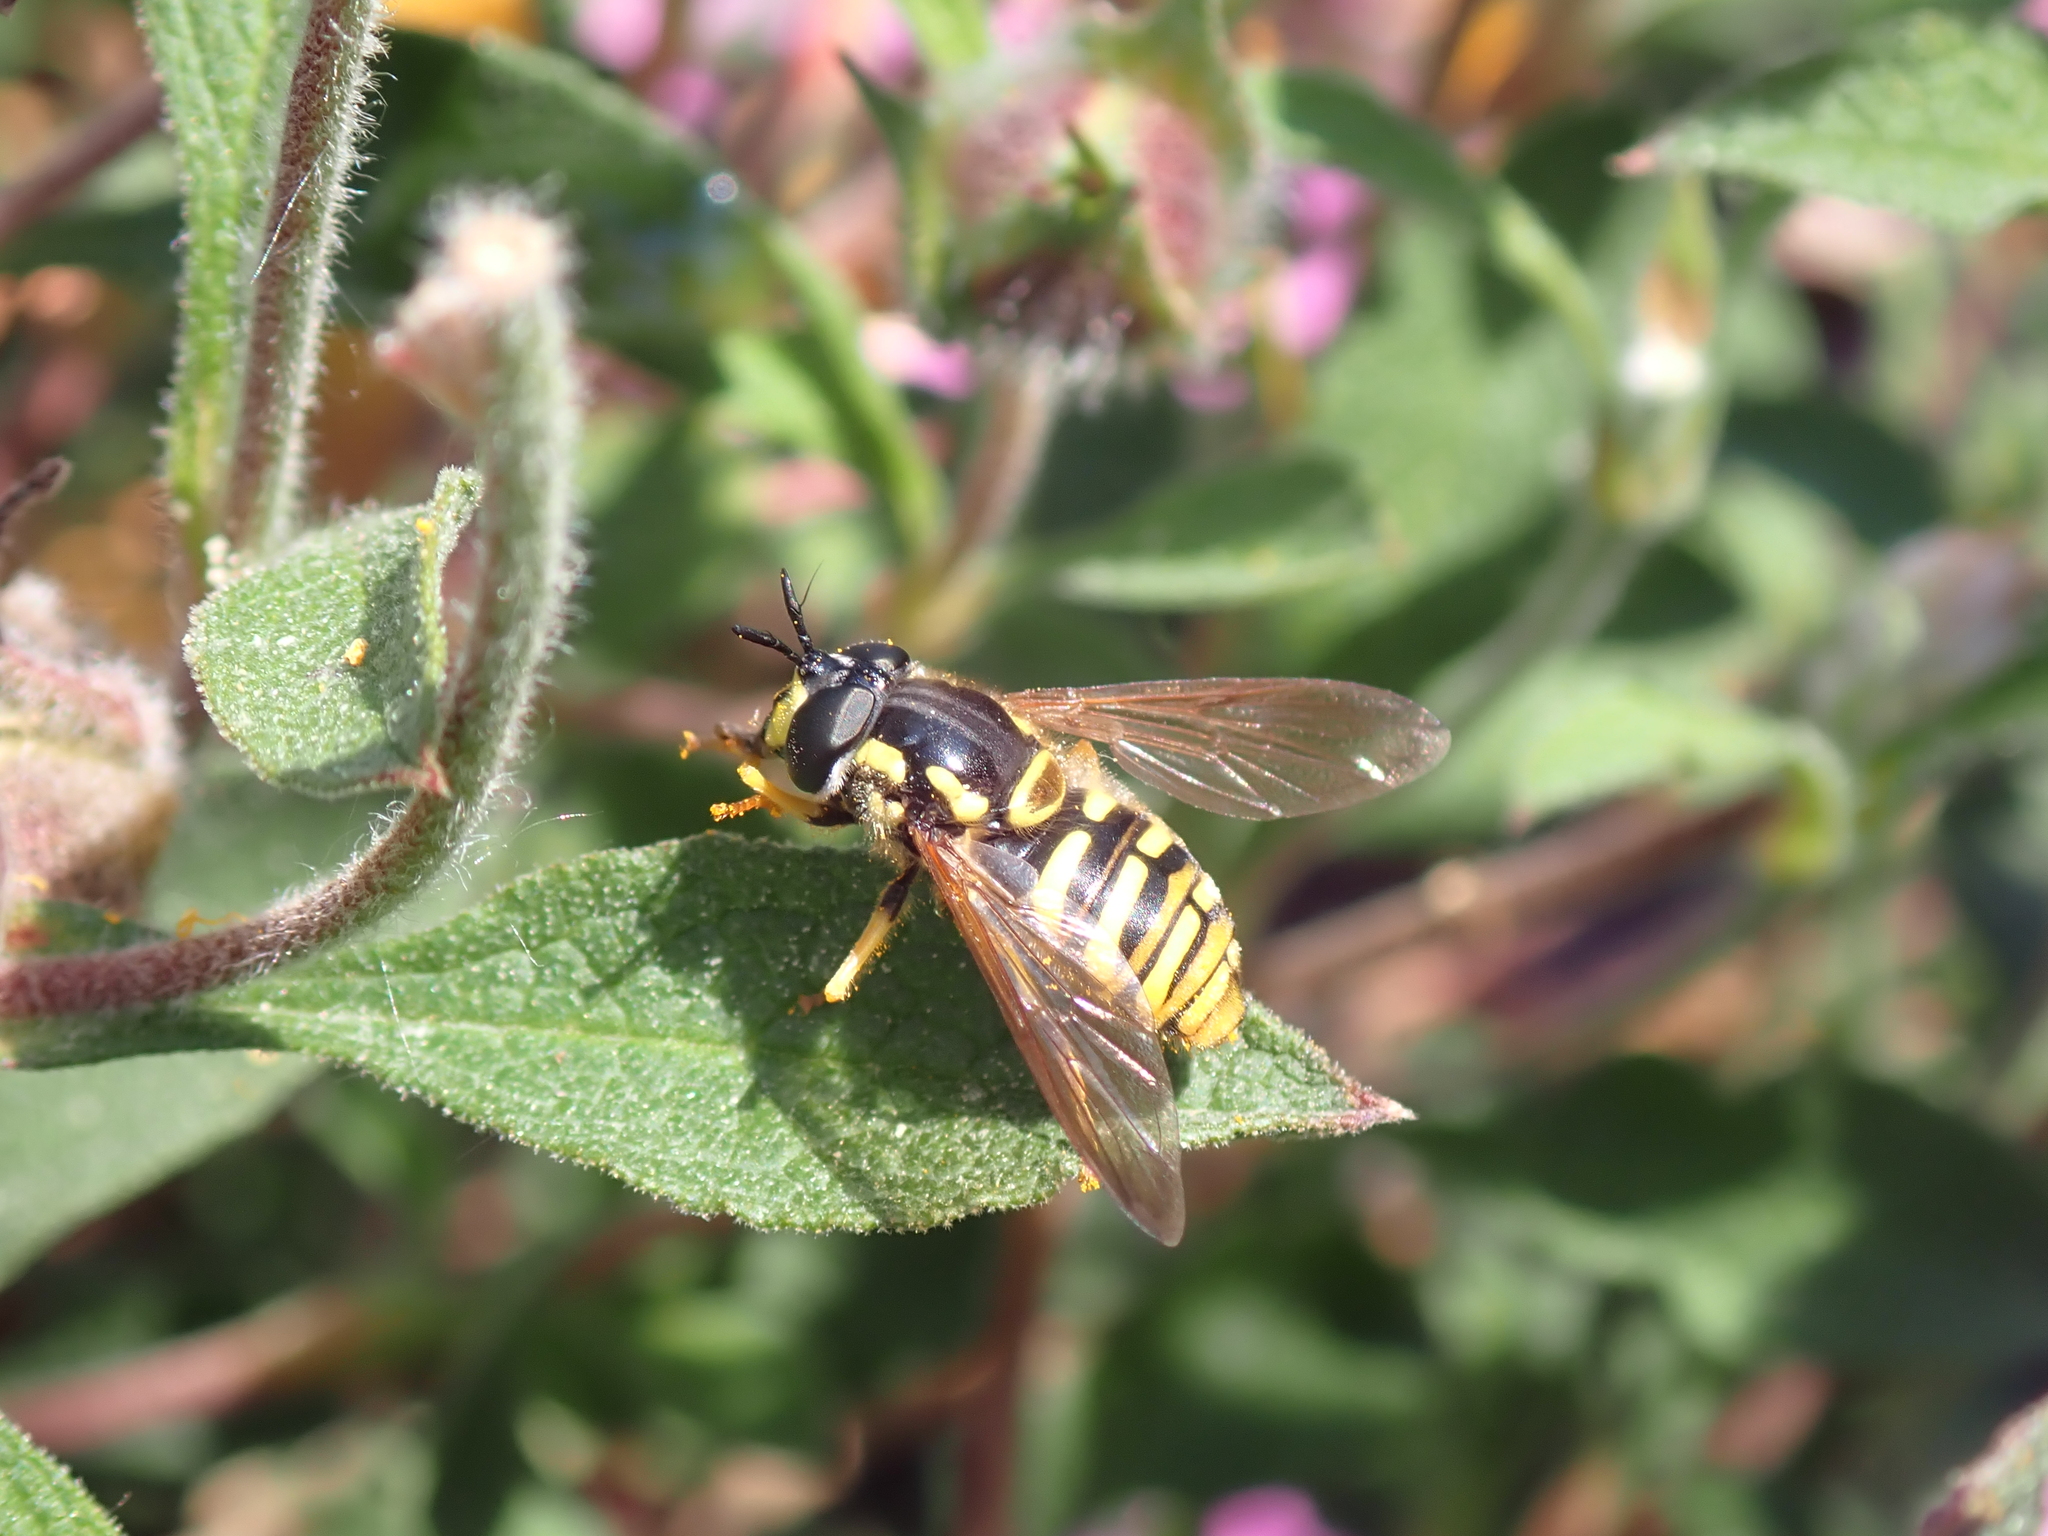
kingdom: Animalia
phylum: Arthropoda
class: Insecta
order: Diptera
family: Syrphidae
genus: Chrysotoxum
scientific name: Chrysotoxum cautum
